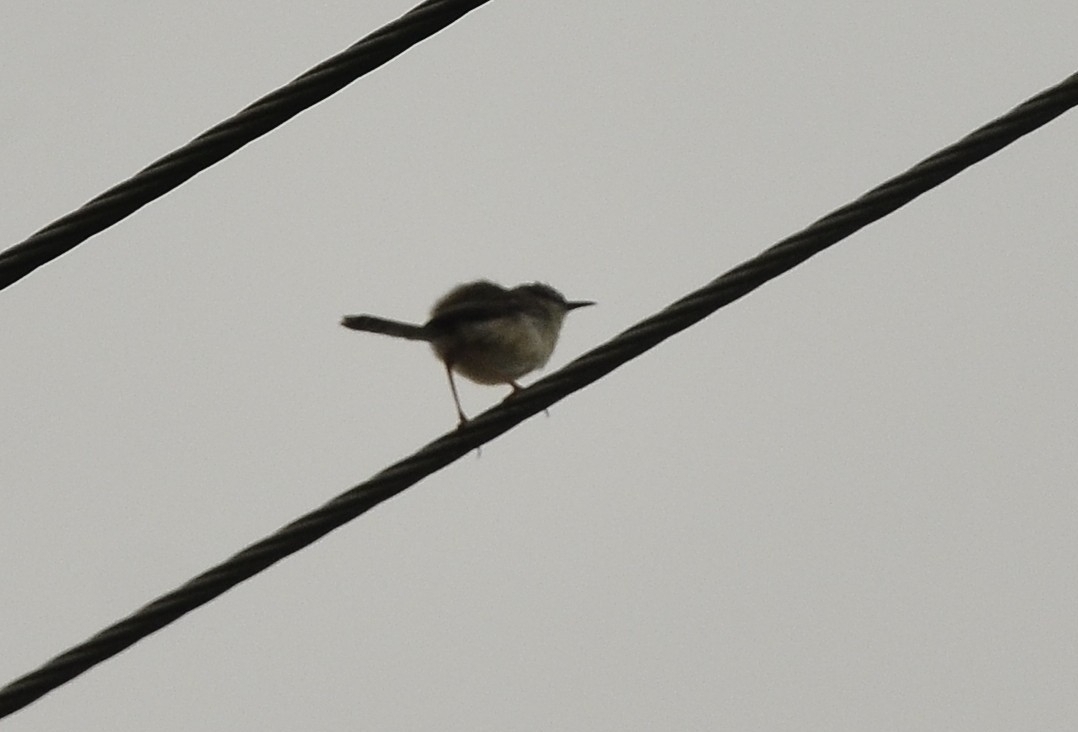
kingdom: Animalia
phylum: Chordata
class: Aves
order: Passeriformes
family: Cisticolidae
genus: Prinia
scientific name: Prinia inornata
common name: Plain prinia
